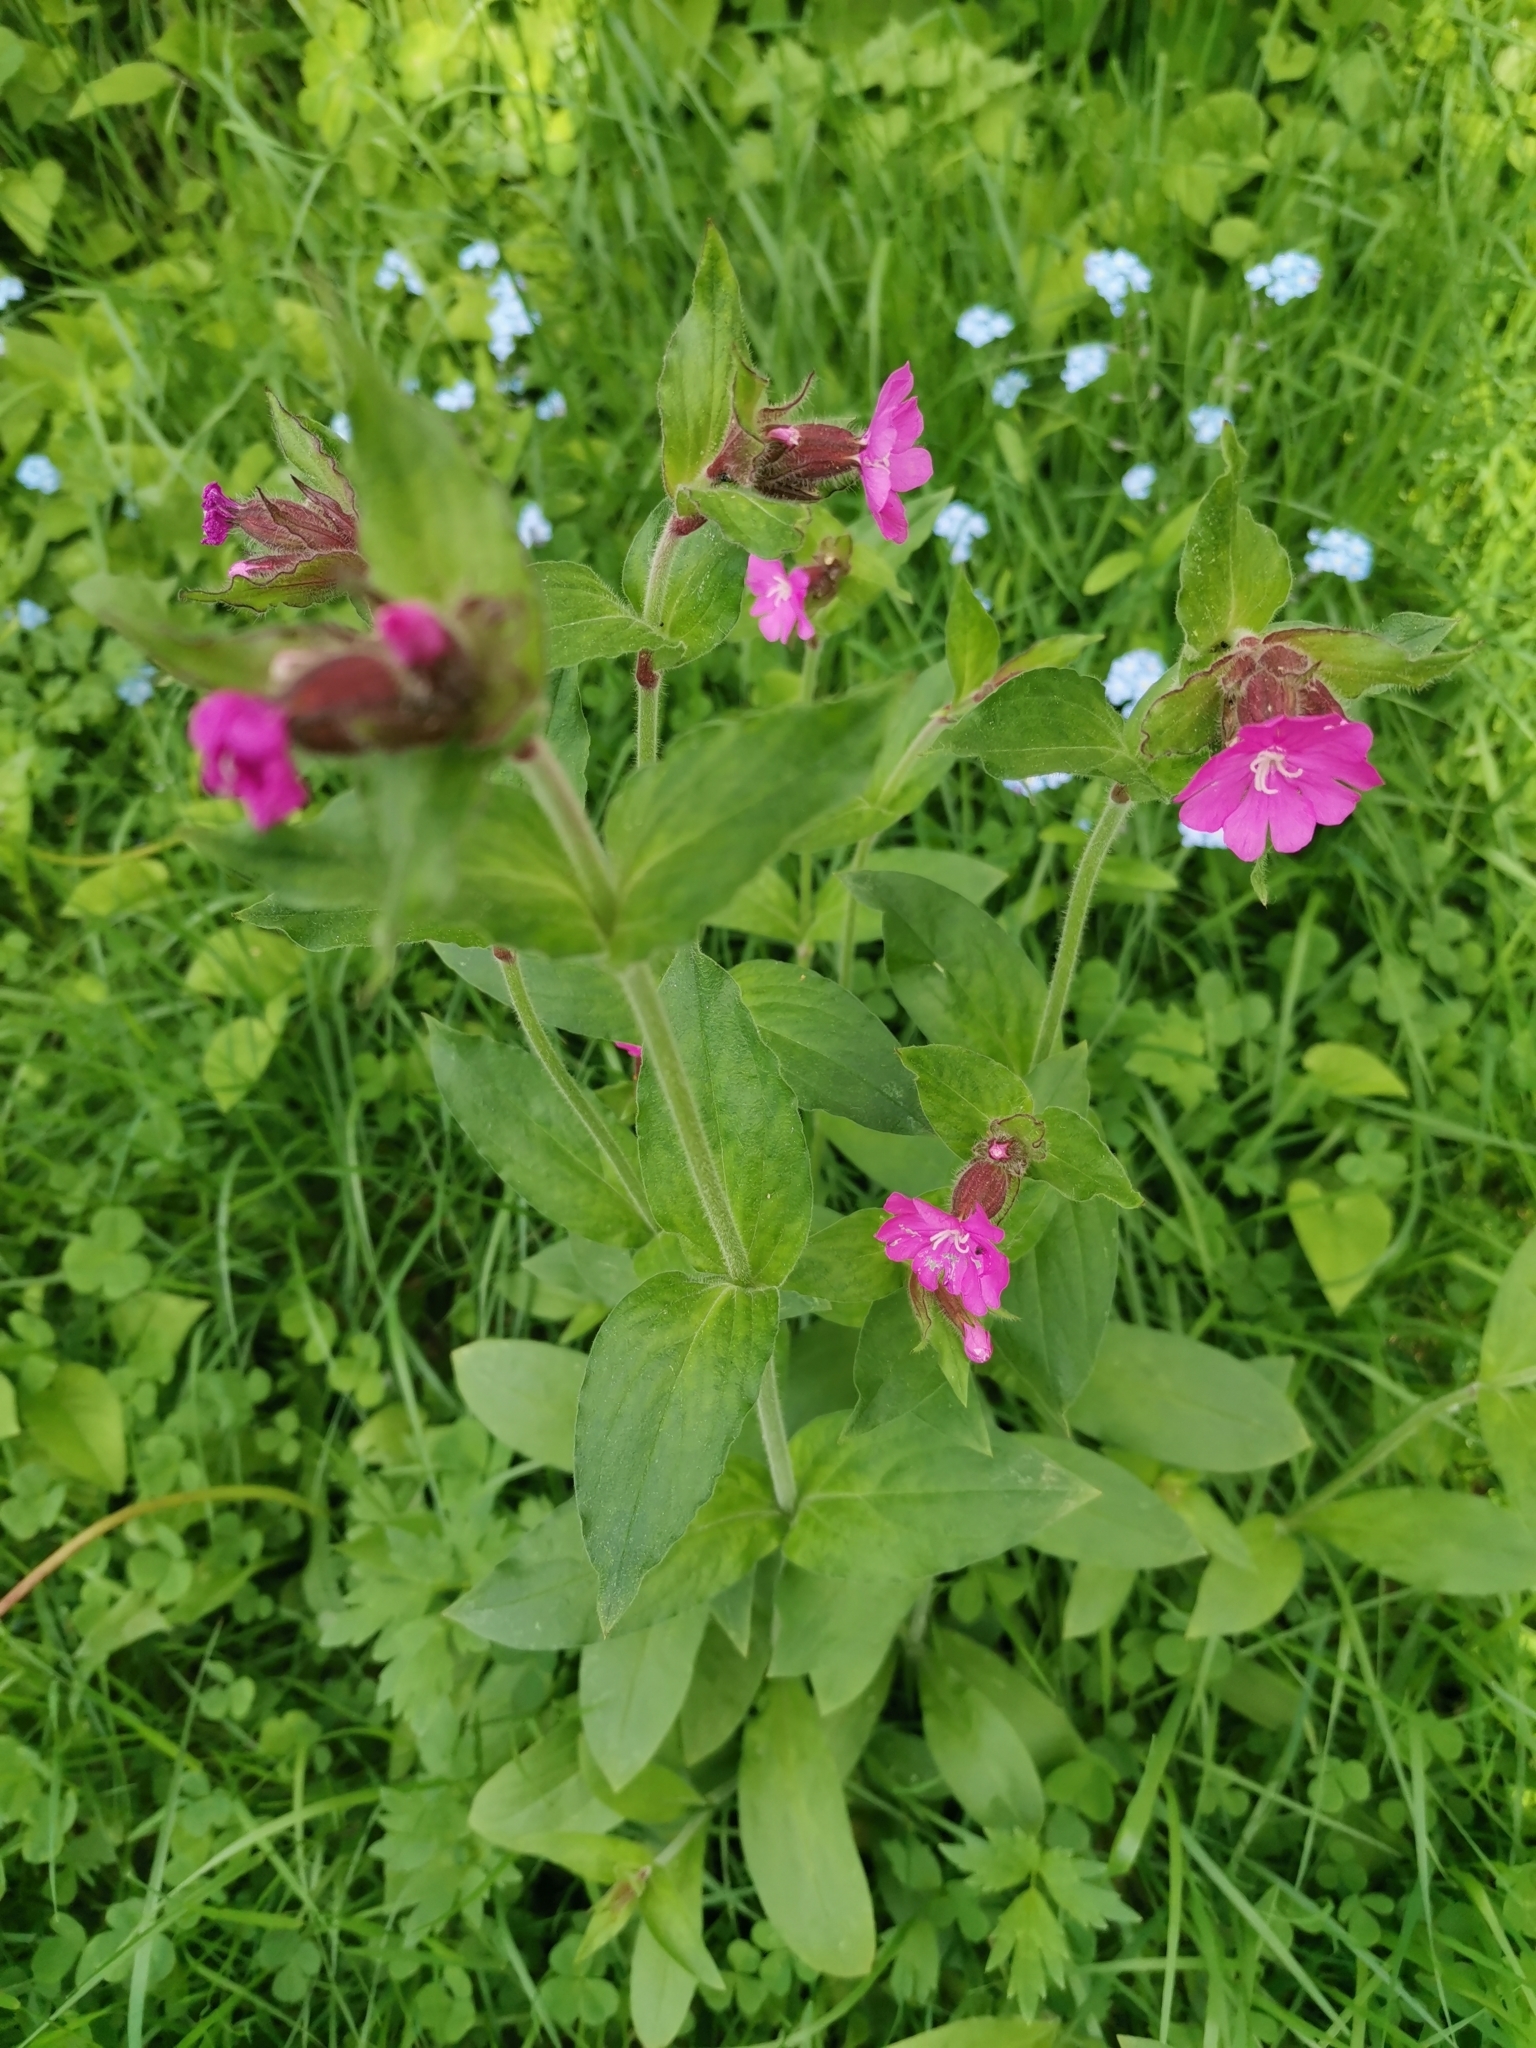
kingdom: Plantae
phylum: Tracheophyta
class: Magnoliopsida
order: Caryophyllales
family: Caryophyllaceae
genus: Silene
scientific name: Silene dioica
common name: Red campion
